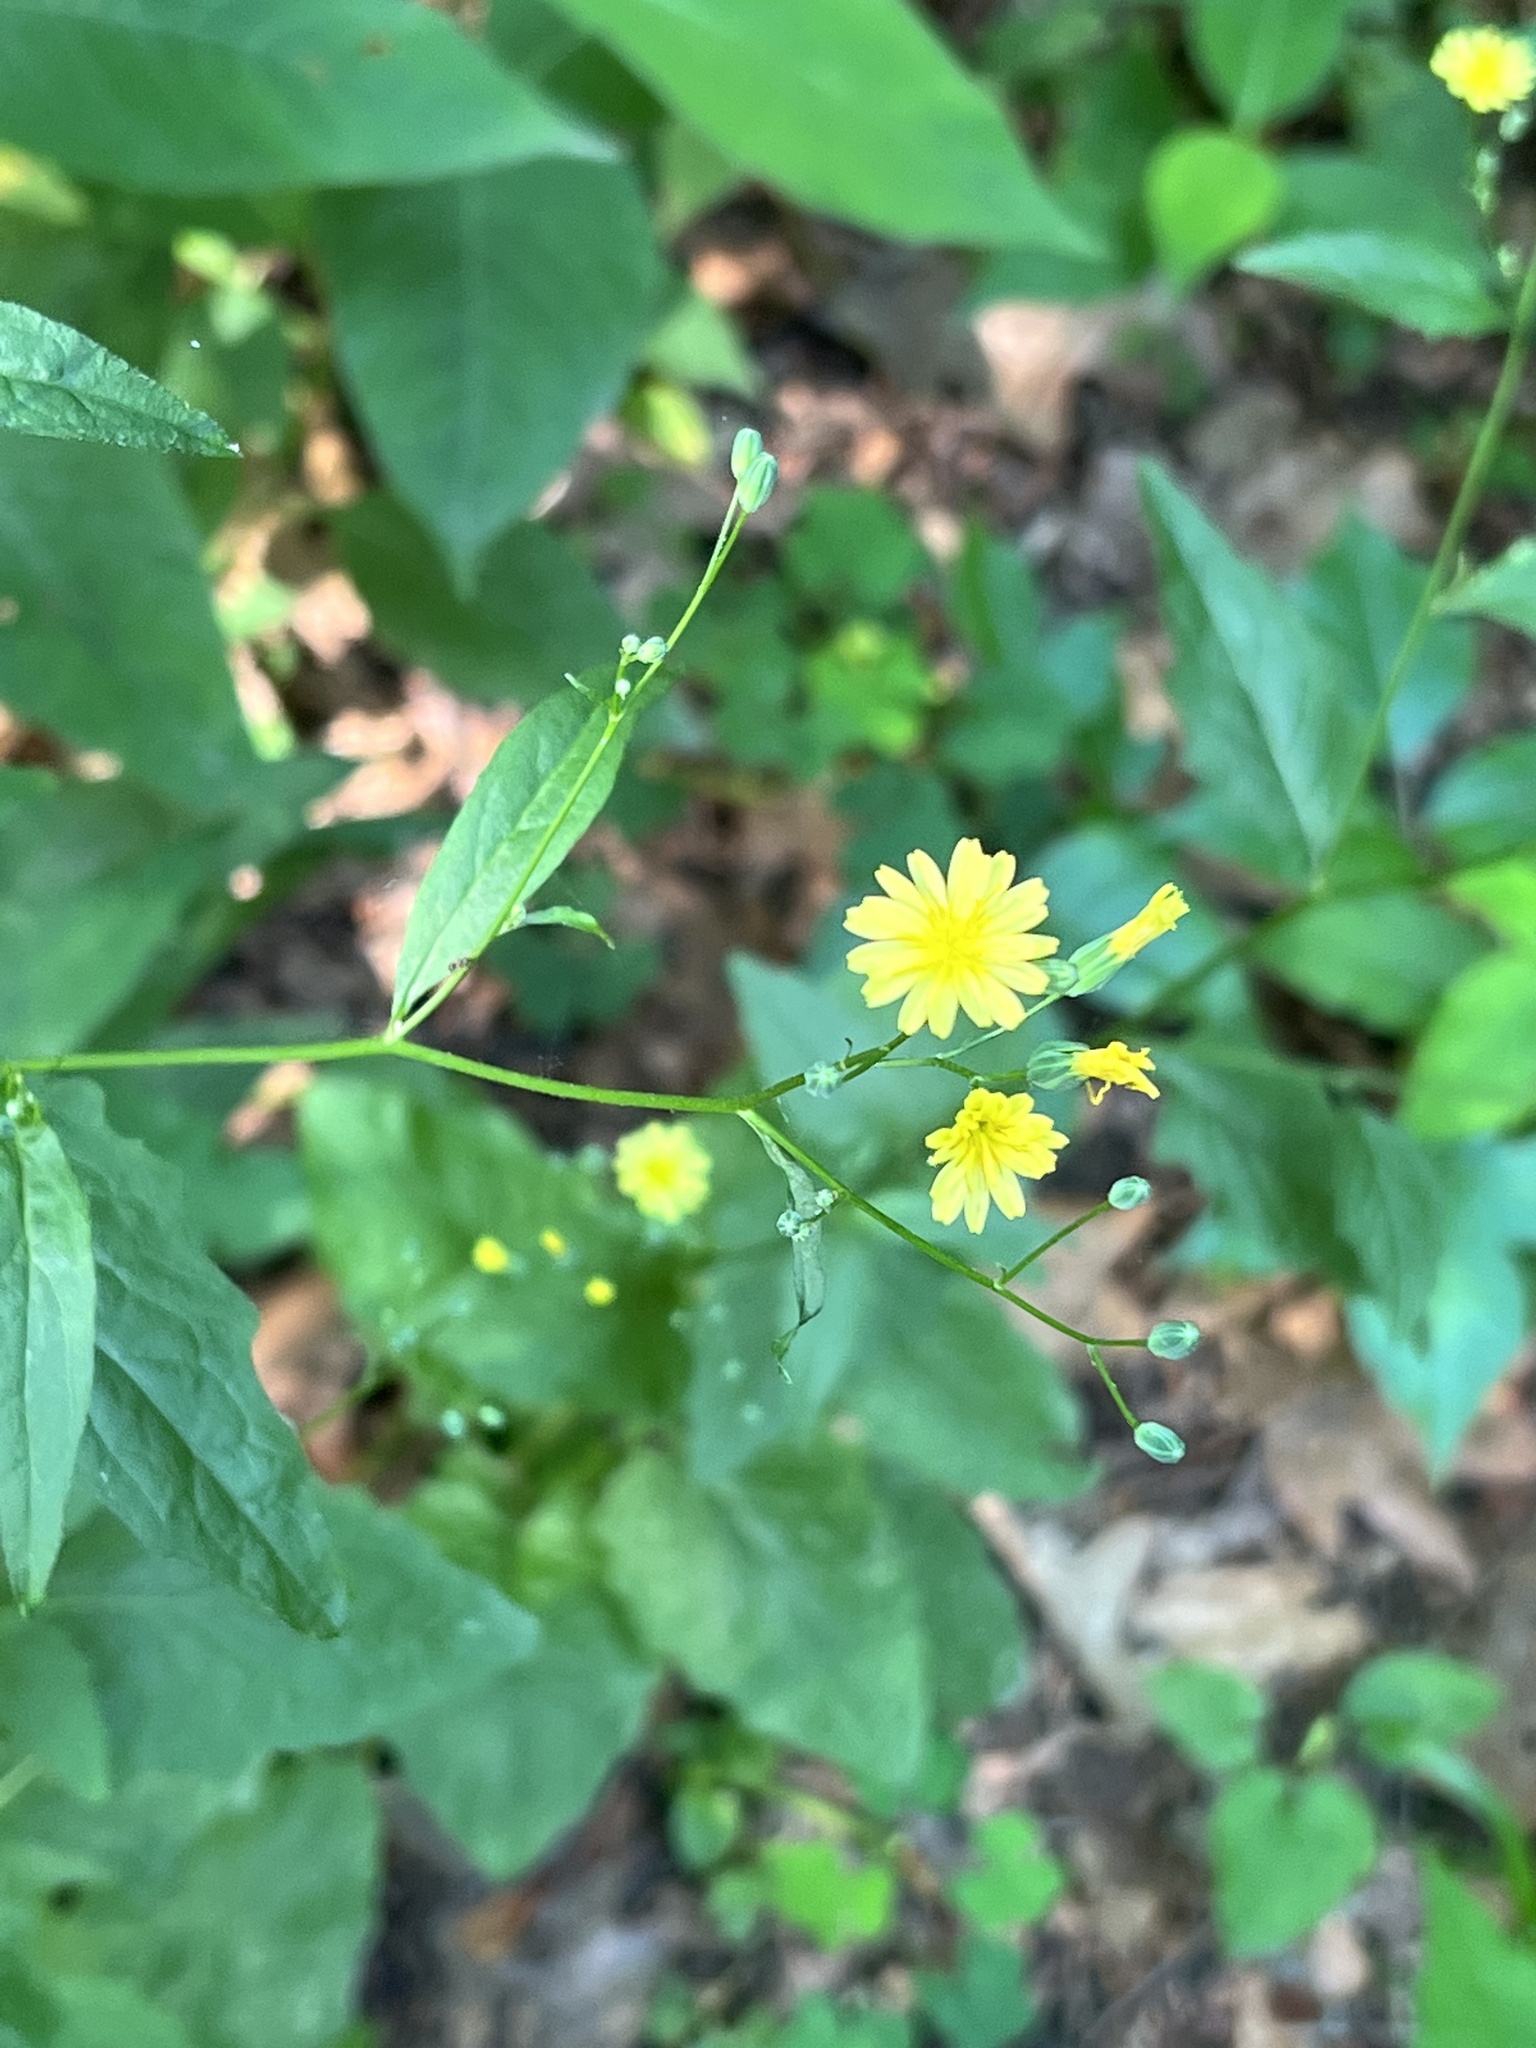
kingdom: Plantae
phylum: Tracheophyta
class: Magnoliopsida
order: Asterales
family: Asteraceae
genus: Lapsana
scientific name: Lapsana communis
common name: Nipplewort
